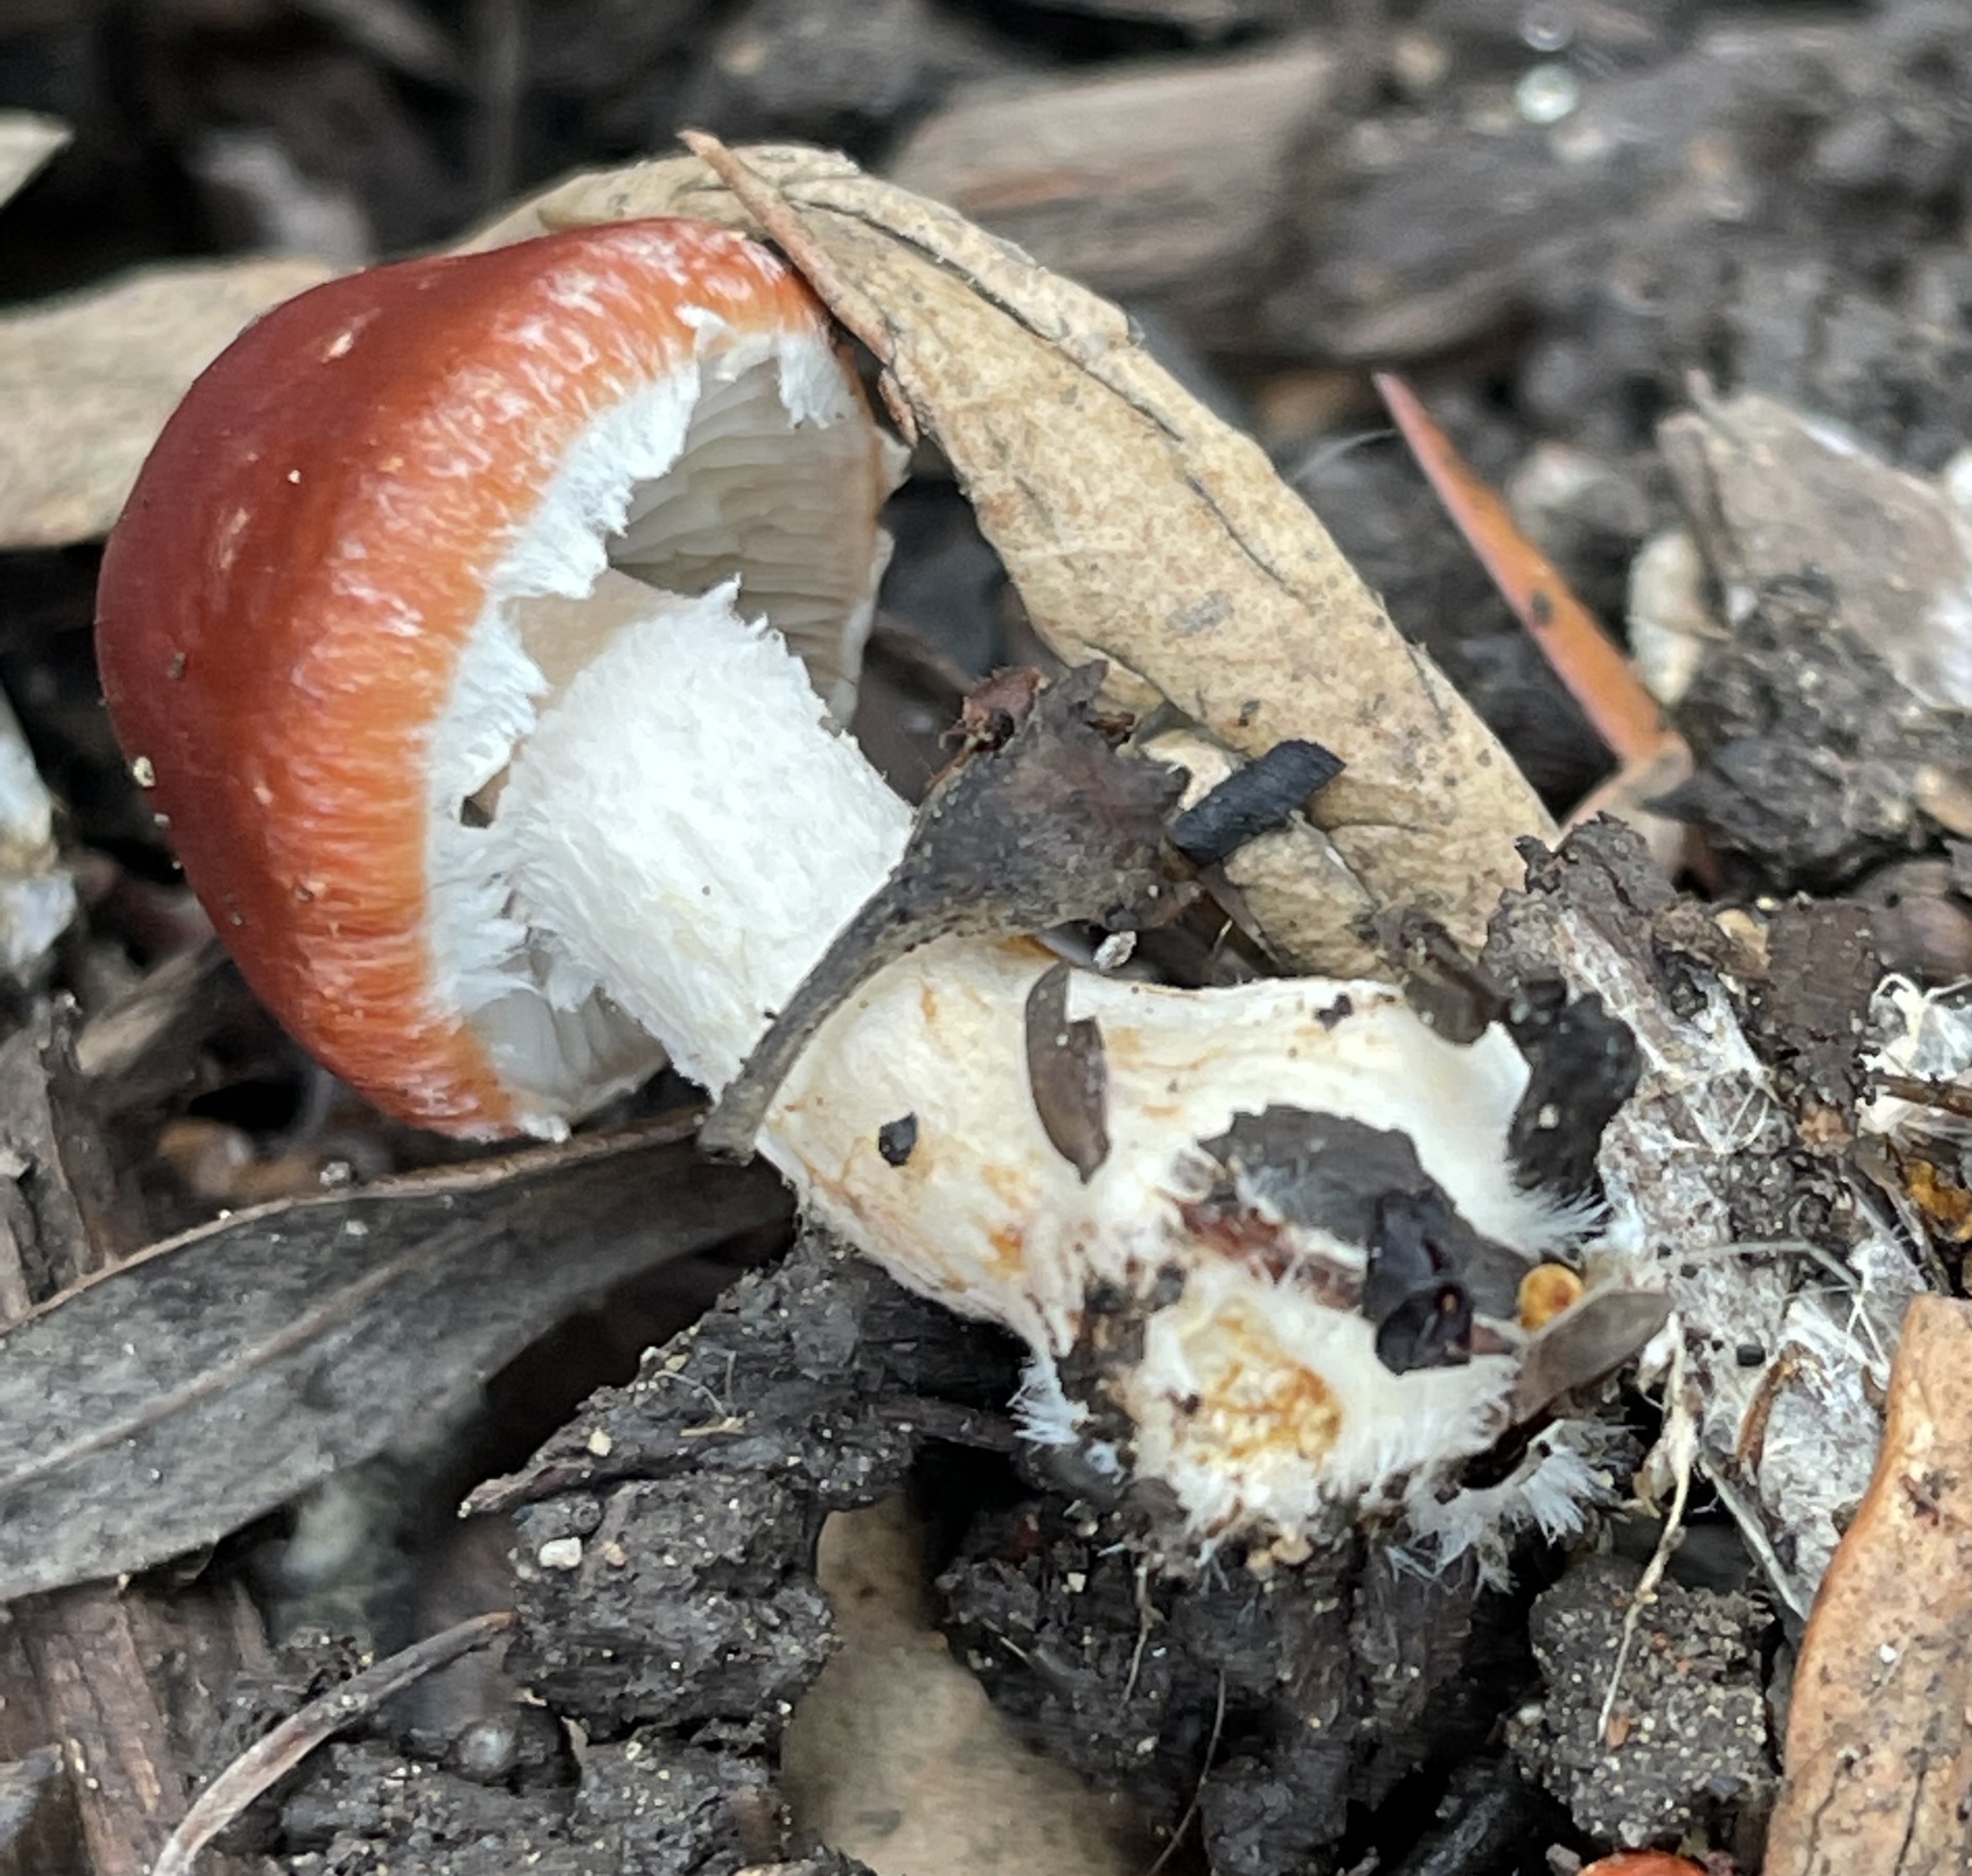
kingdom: Fungi
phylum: Basidiomycota
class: Agaricomycetes
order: Agaricales
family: Strophariaceae
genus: Leratiomyces
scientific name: Leratiomyces ceres
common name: Redlead roundhead
